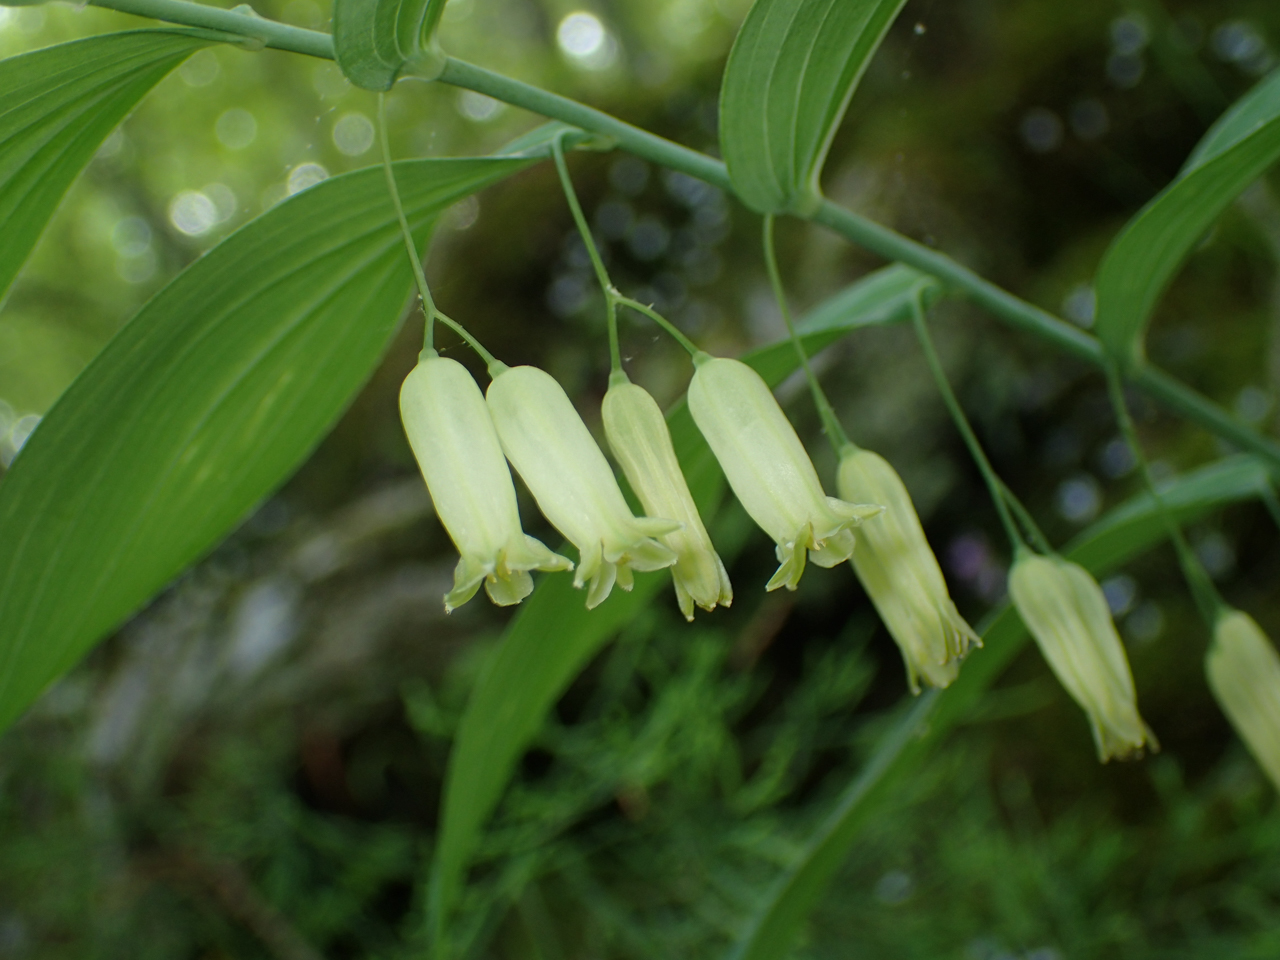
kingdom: Plantae
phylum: Tracheophyta
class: Liliopsida
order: Asparagales
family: Asparagaceae
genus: Polygonatum
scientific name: Polygonatum biflorum
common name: American solomon's-seal
